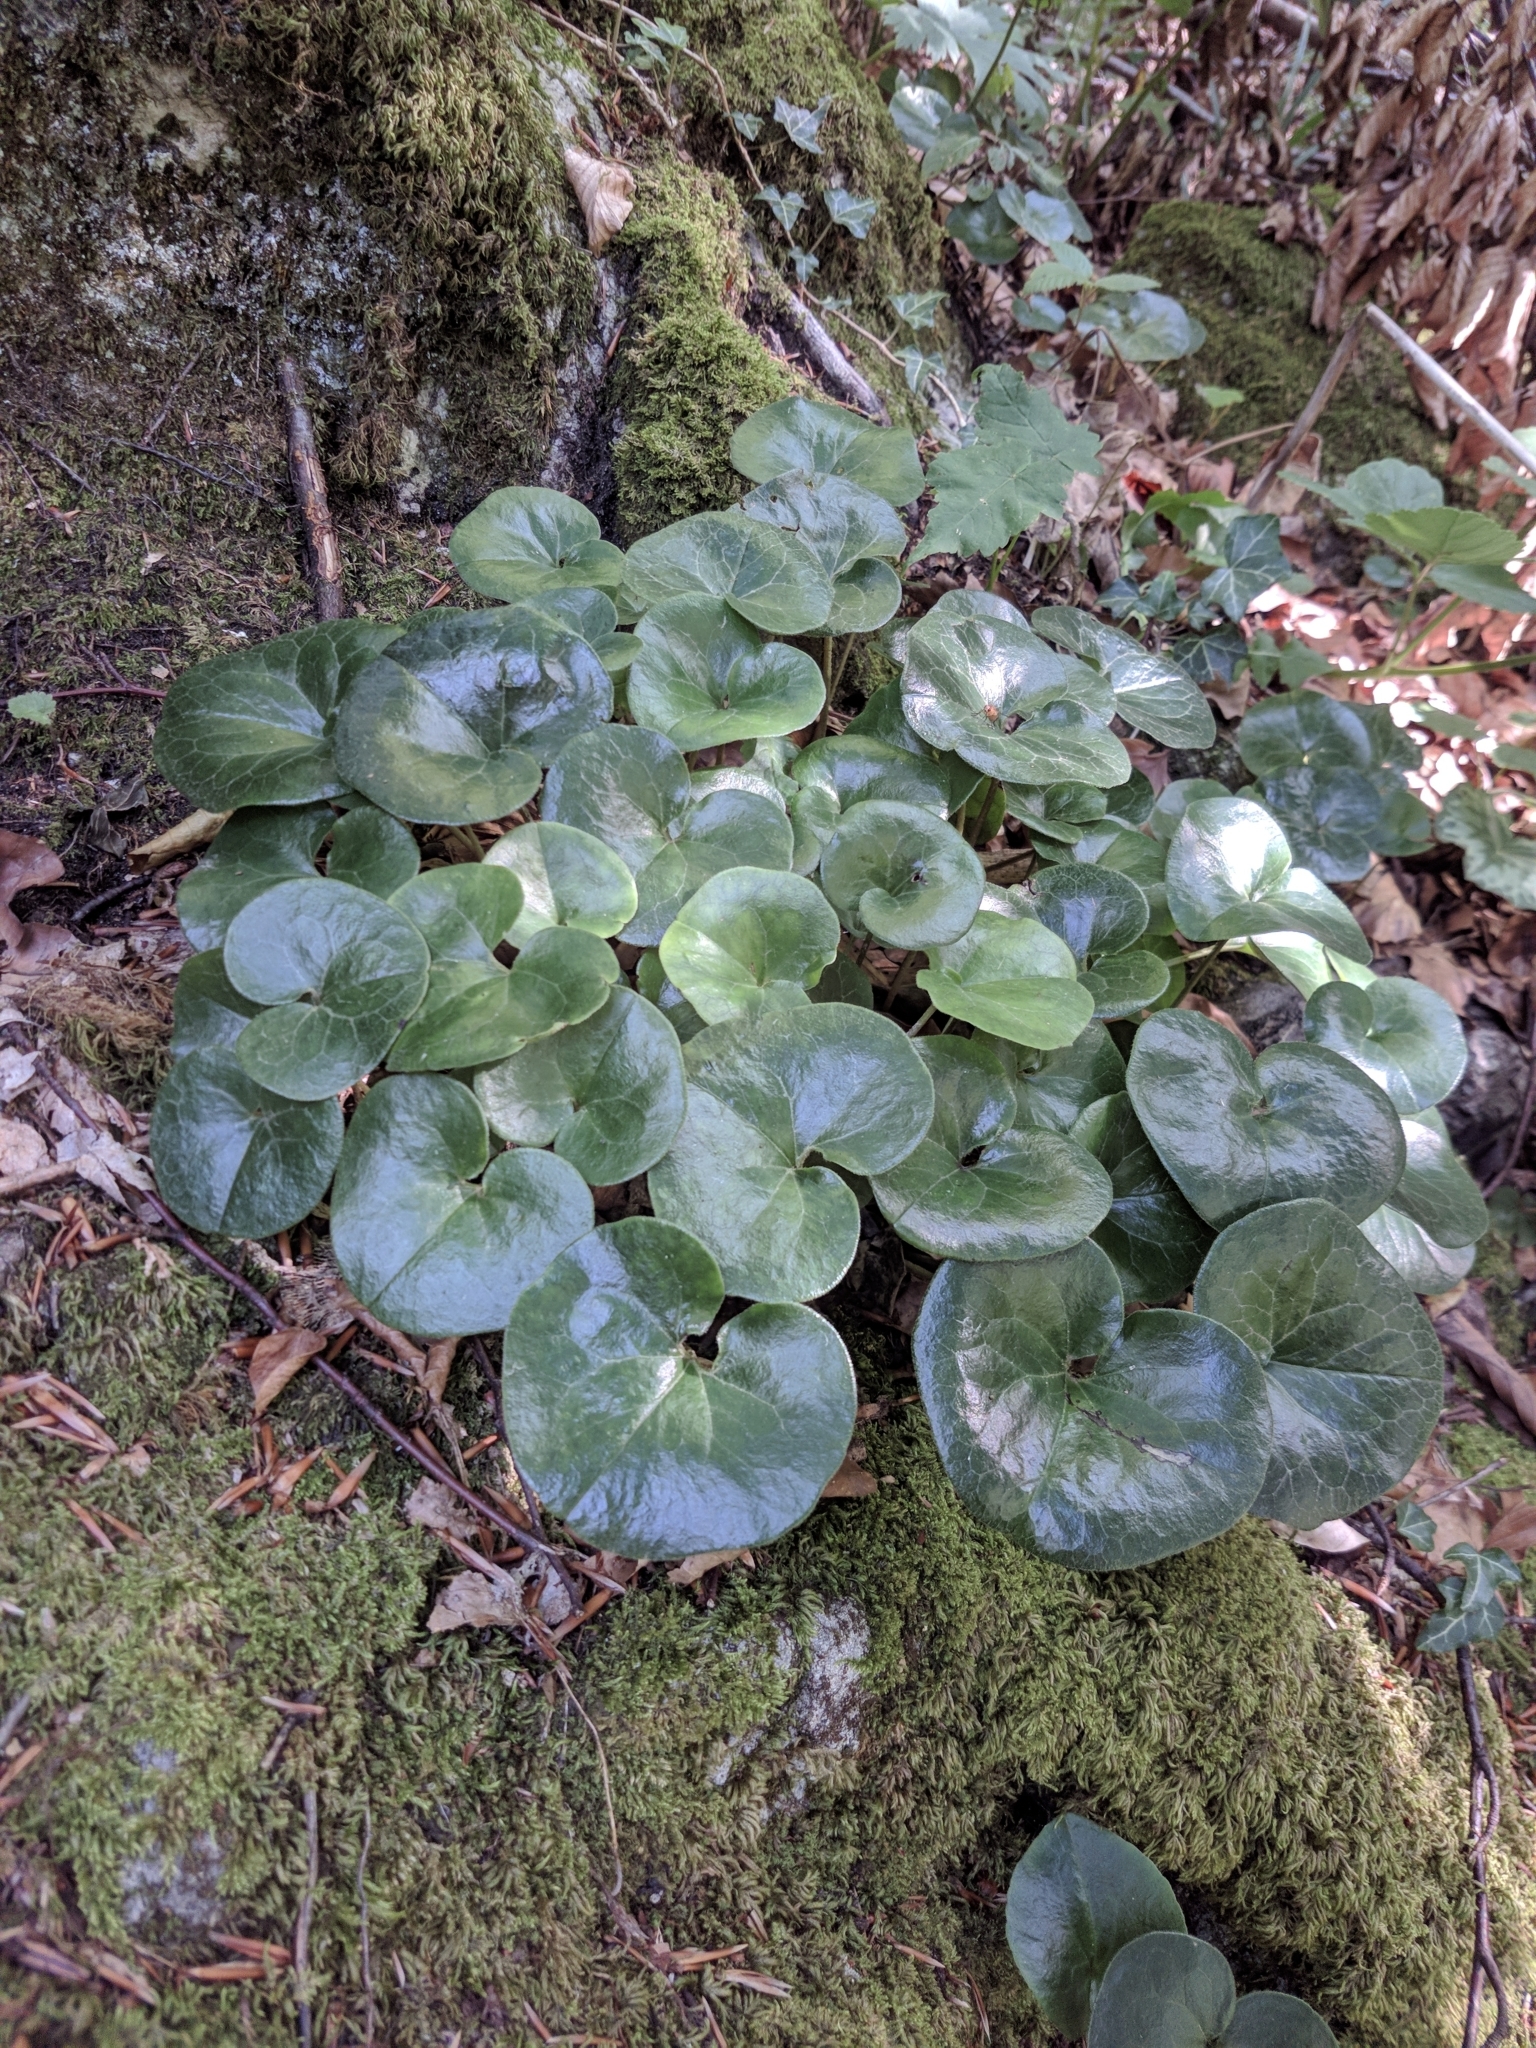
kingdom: Plantae
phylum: Tracheophyta
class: Magnoliopsida
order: Piperales
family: Aristolochiaceae
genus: Asarum
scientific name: Asarum europaeum
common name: Asarabacca
